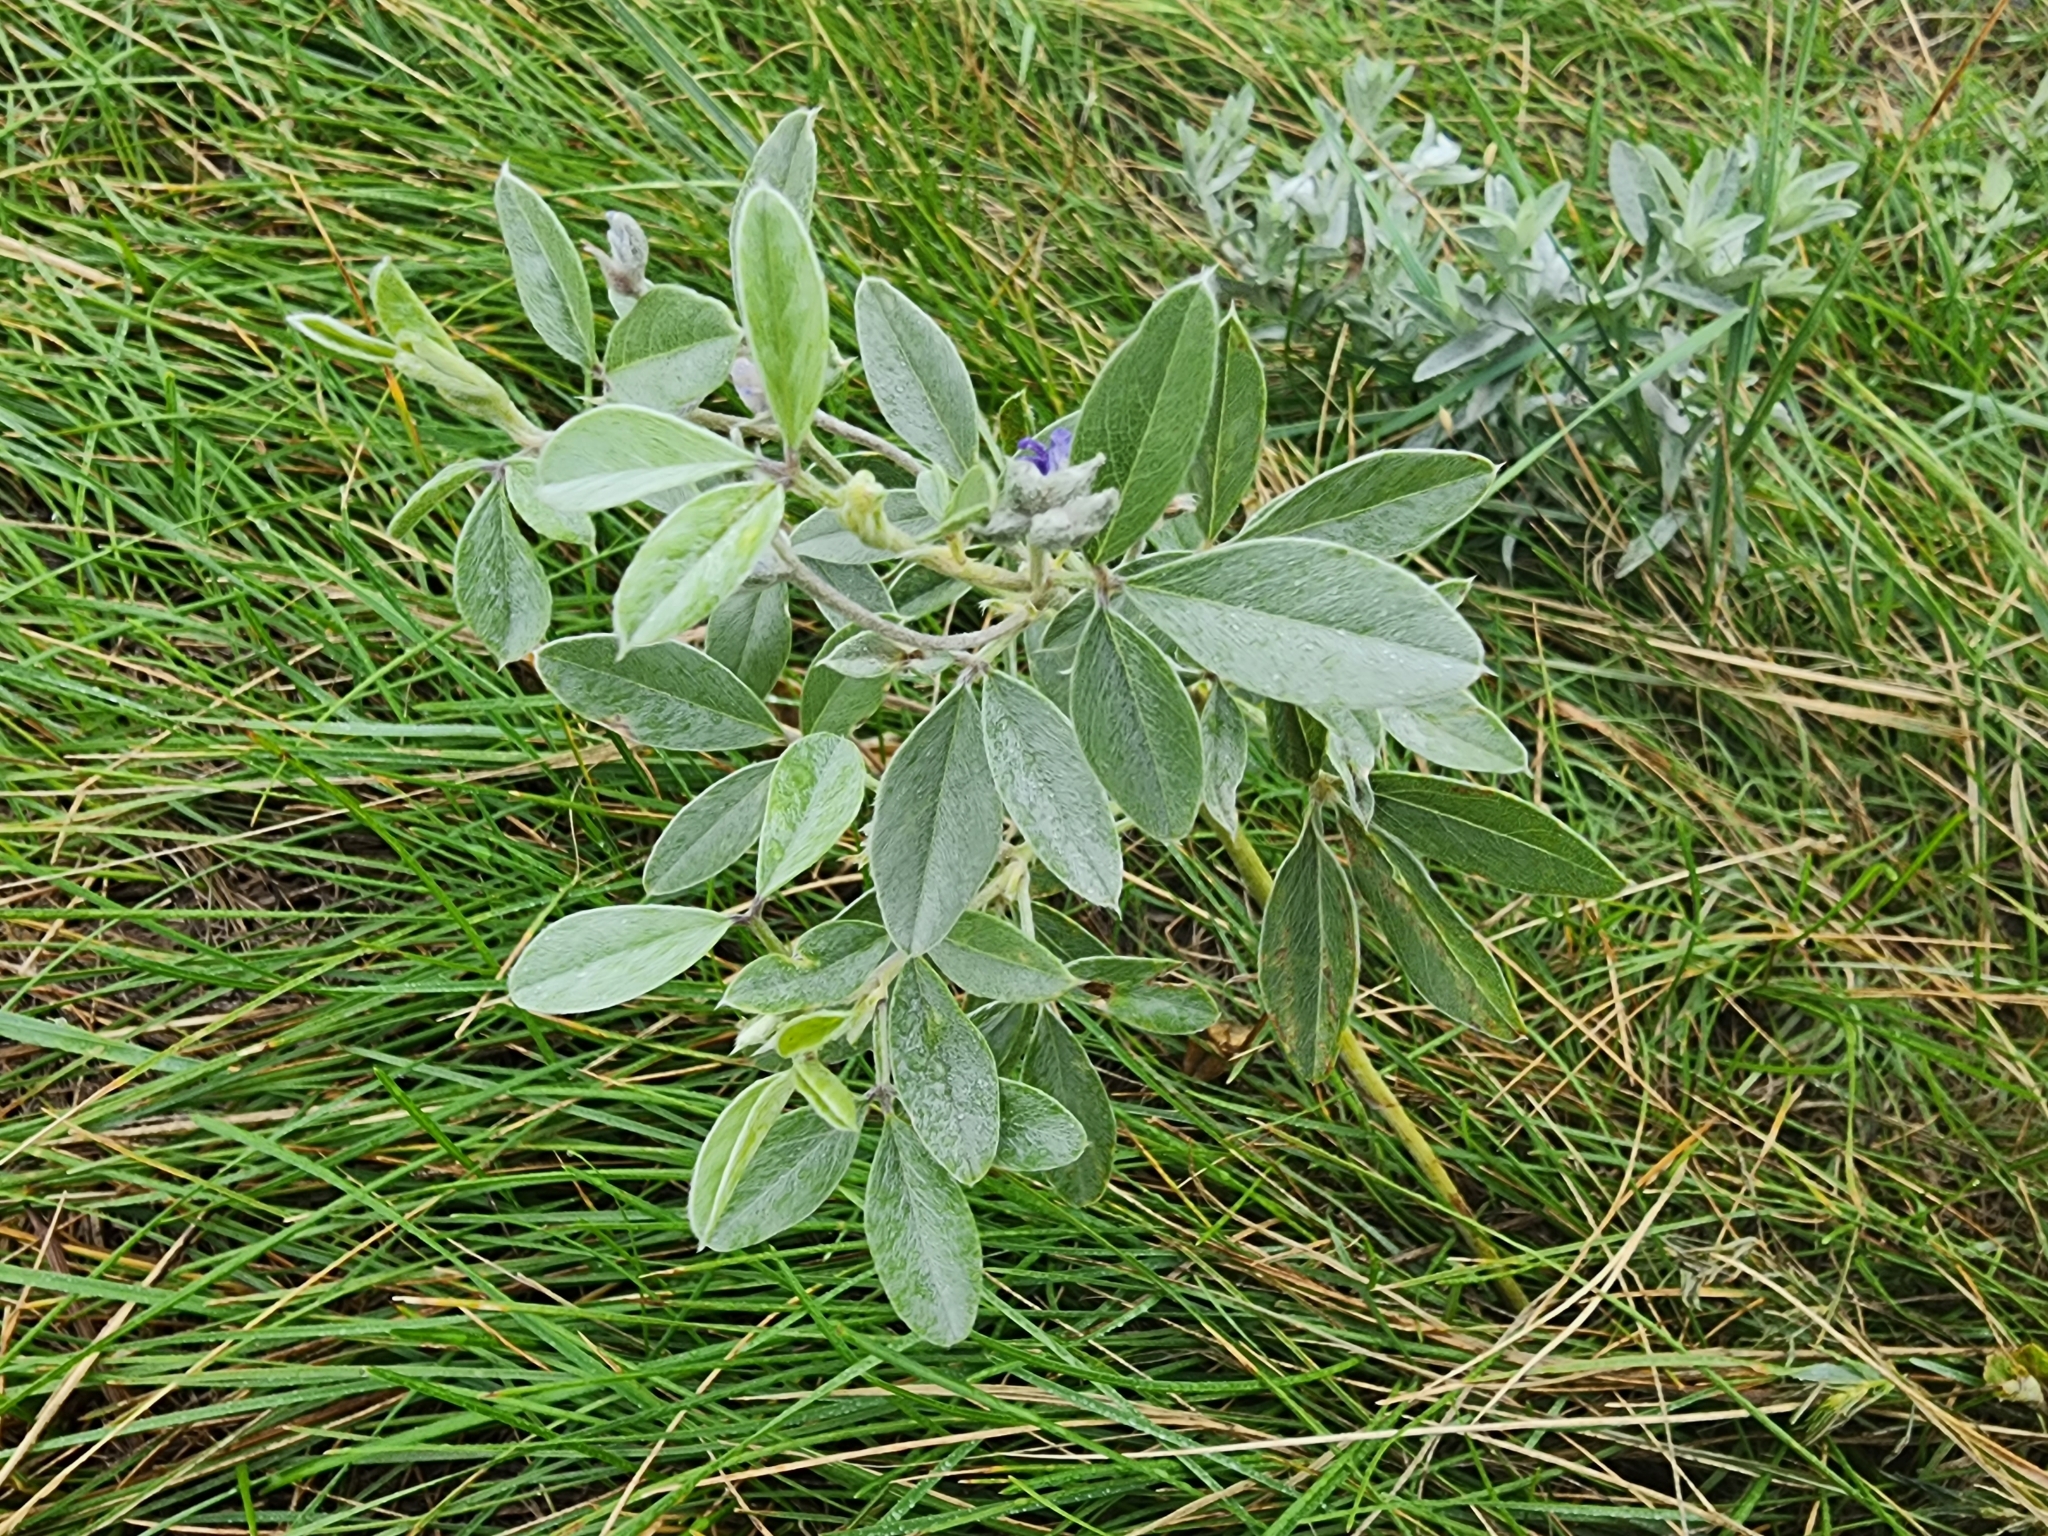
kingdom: Plantae
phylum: Tracheophyta
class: Magnoliopsida
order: Fabales
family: Fabaceae
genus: Pediomelum
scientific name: Pediomelum argophyllum
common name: Silver-leaved indian breadroot
